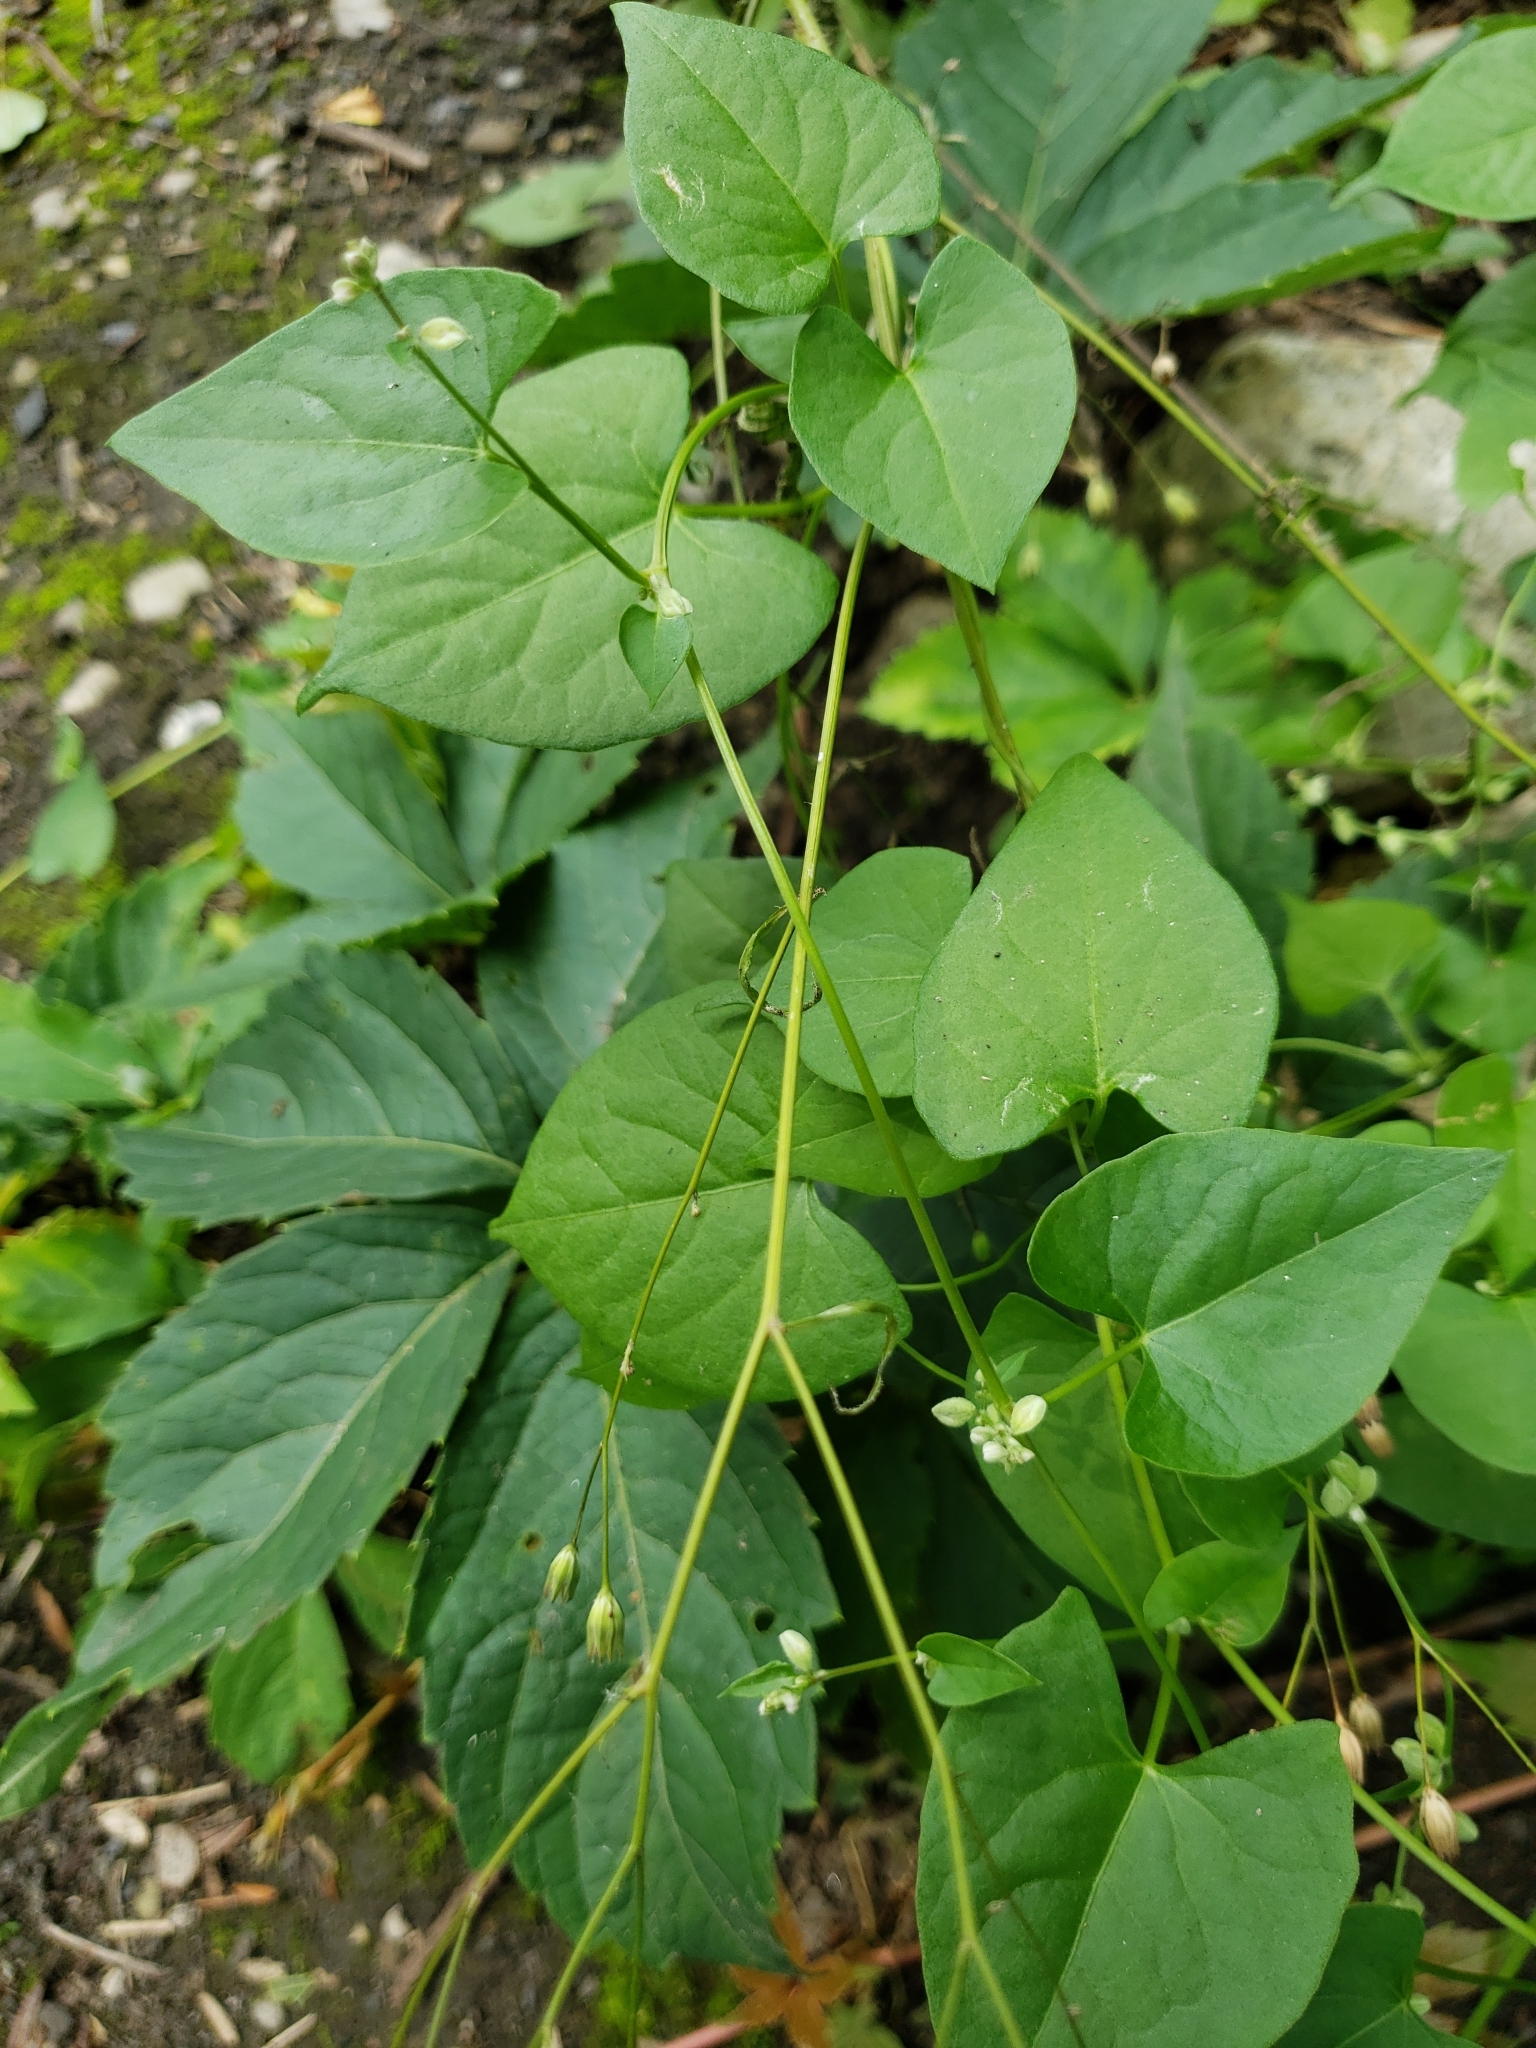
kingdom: Plantae
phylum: Tracheophyta
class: Magnoliopsida
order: Caryophyllales
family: Polygonaceae
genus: Fallopia
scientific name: Fallopia convolvulus
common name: Black bindweed
